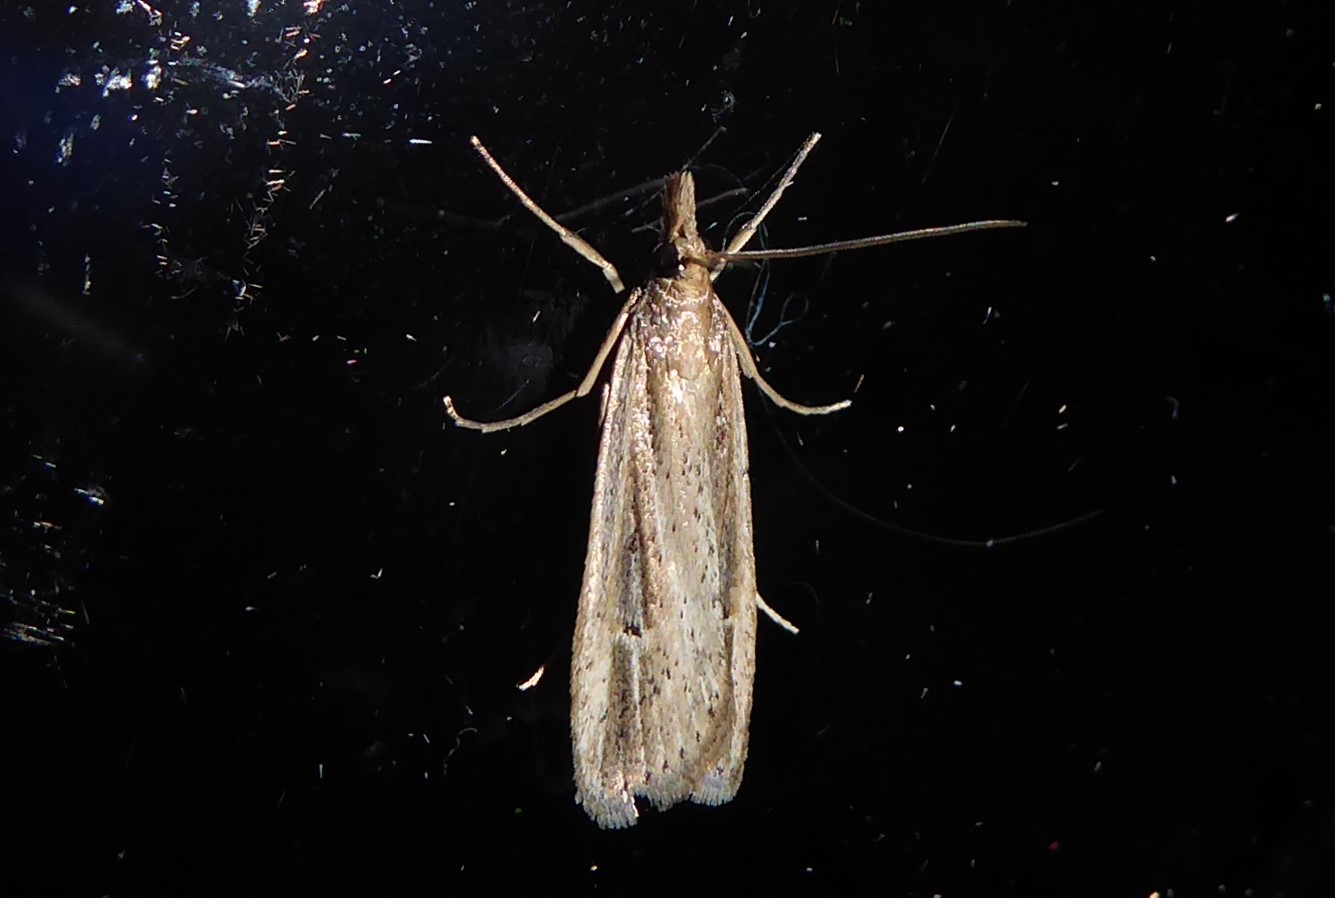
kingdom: Animalia
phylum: Arthropoda
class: Insecta
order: Lepidoptera
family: Crambidae
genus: Eudonia
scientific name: Eudonia sabulosella
